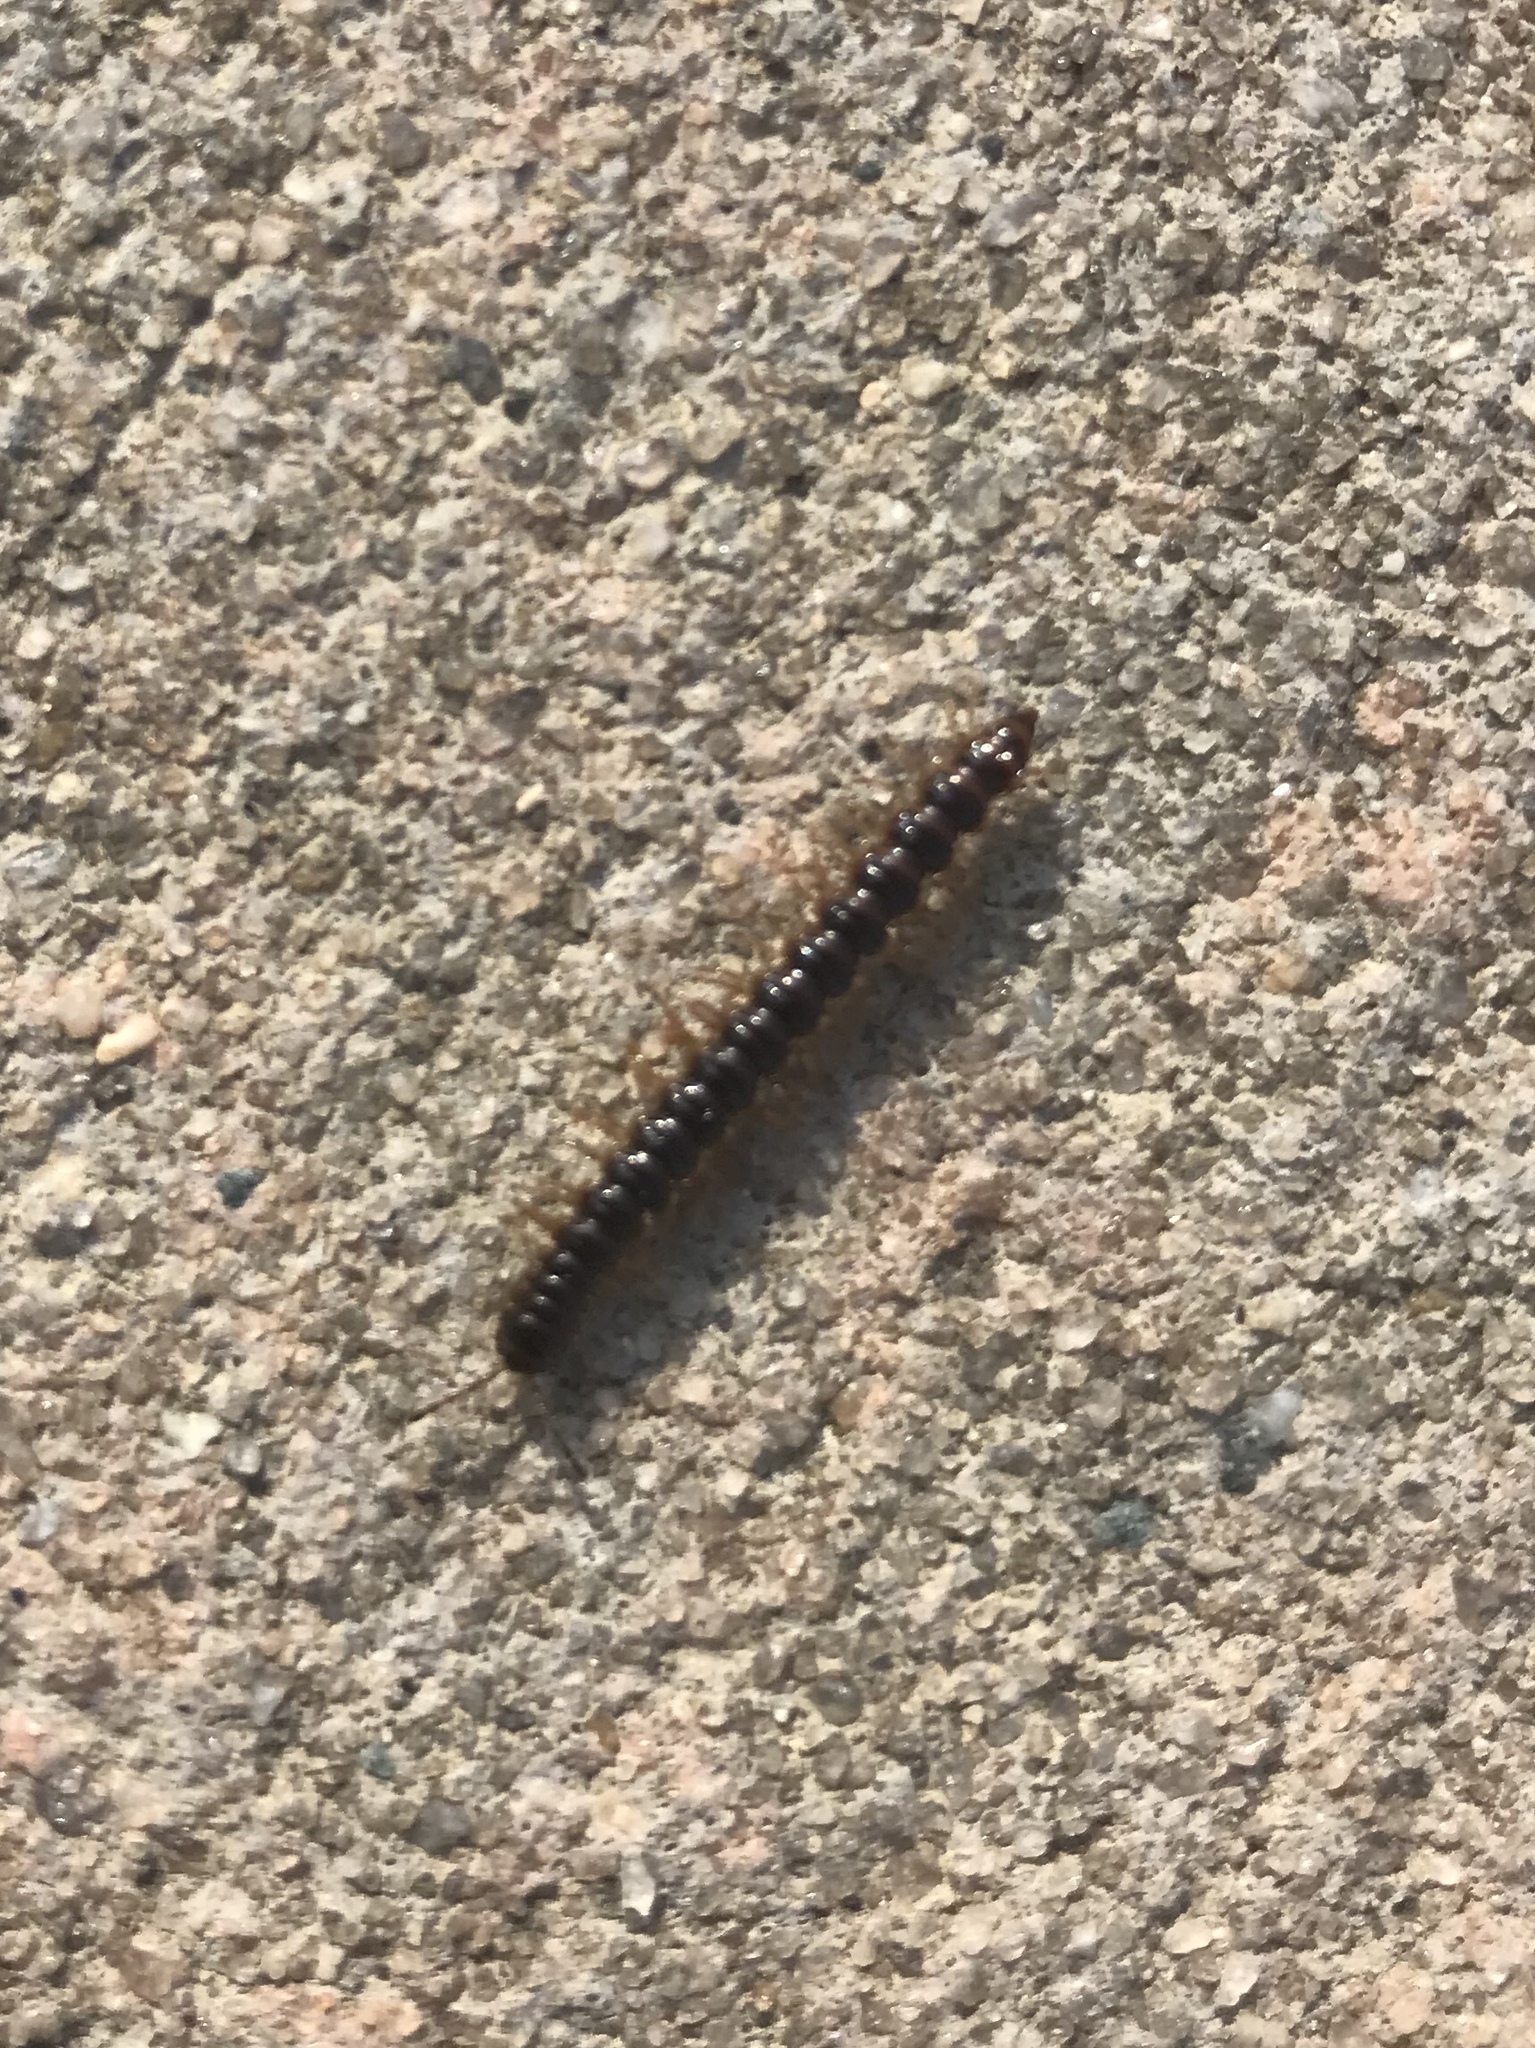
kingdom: Animalia
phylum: Arthropoda
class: Diplopoda
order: Polydesmida
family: Paradoxosomatidae
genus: Oxidus
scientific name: Oxidus gracilis
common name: Greenhouse millipede
